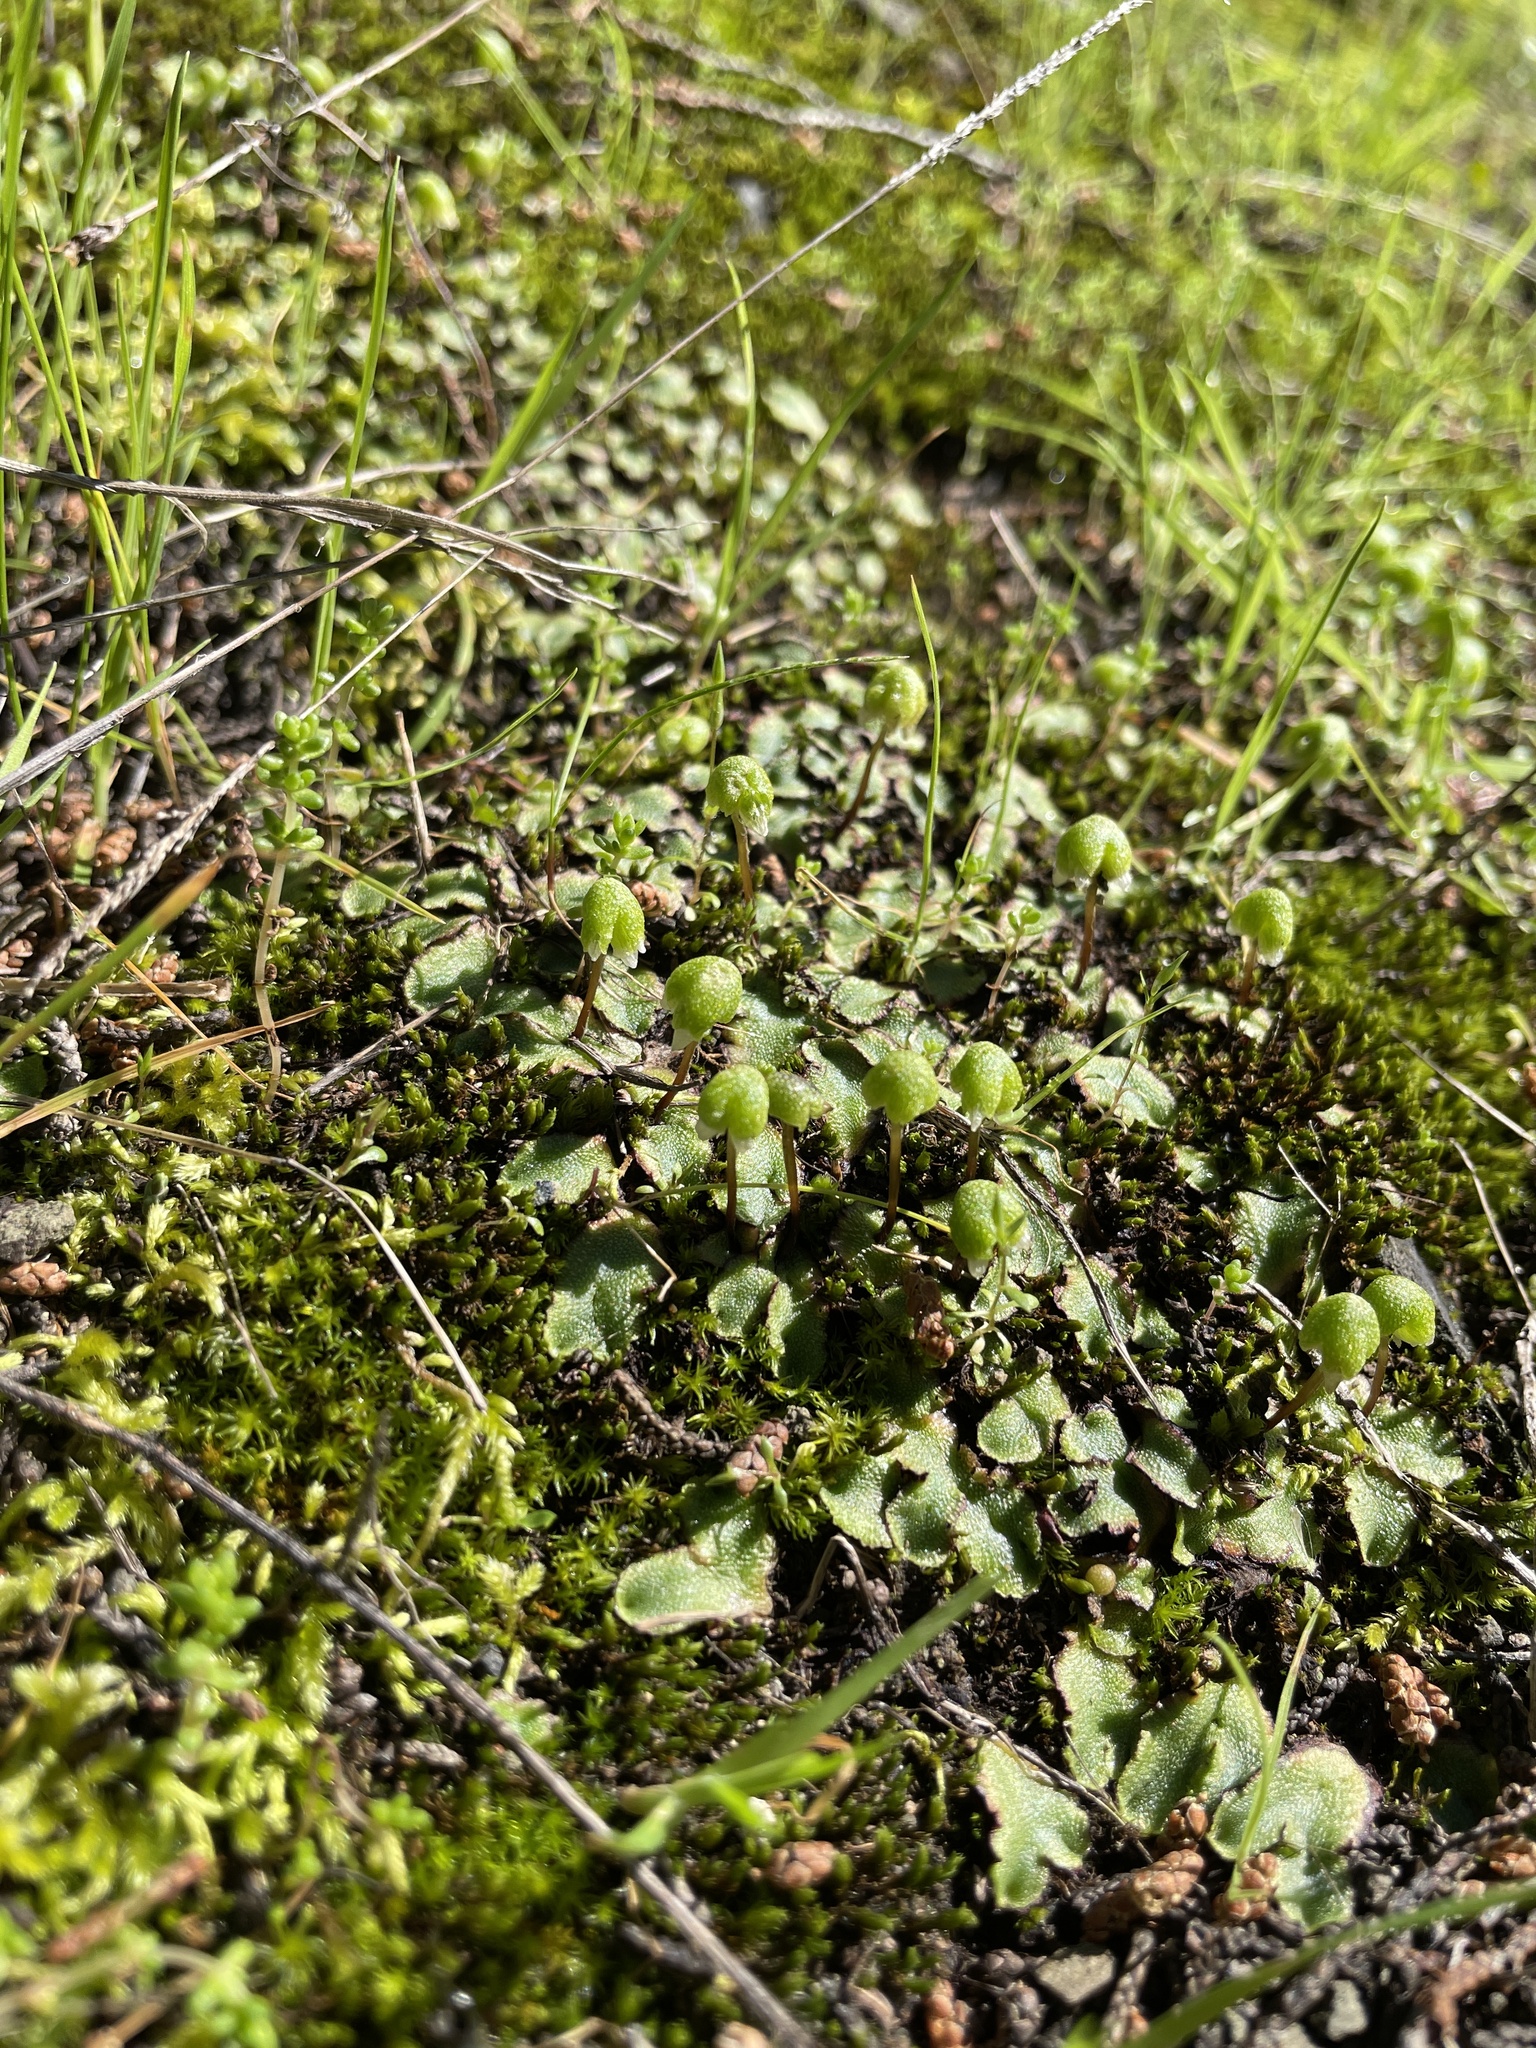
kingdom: Plantae
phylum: Marchantiophyta
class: Marchantiopsida
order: Marchantiales
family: Aytoniaceae
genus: Asterella
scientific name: Asterella californica
